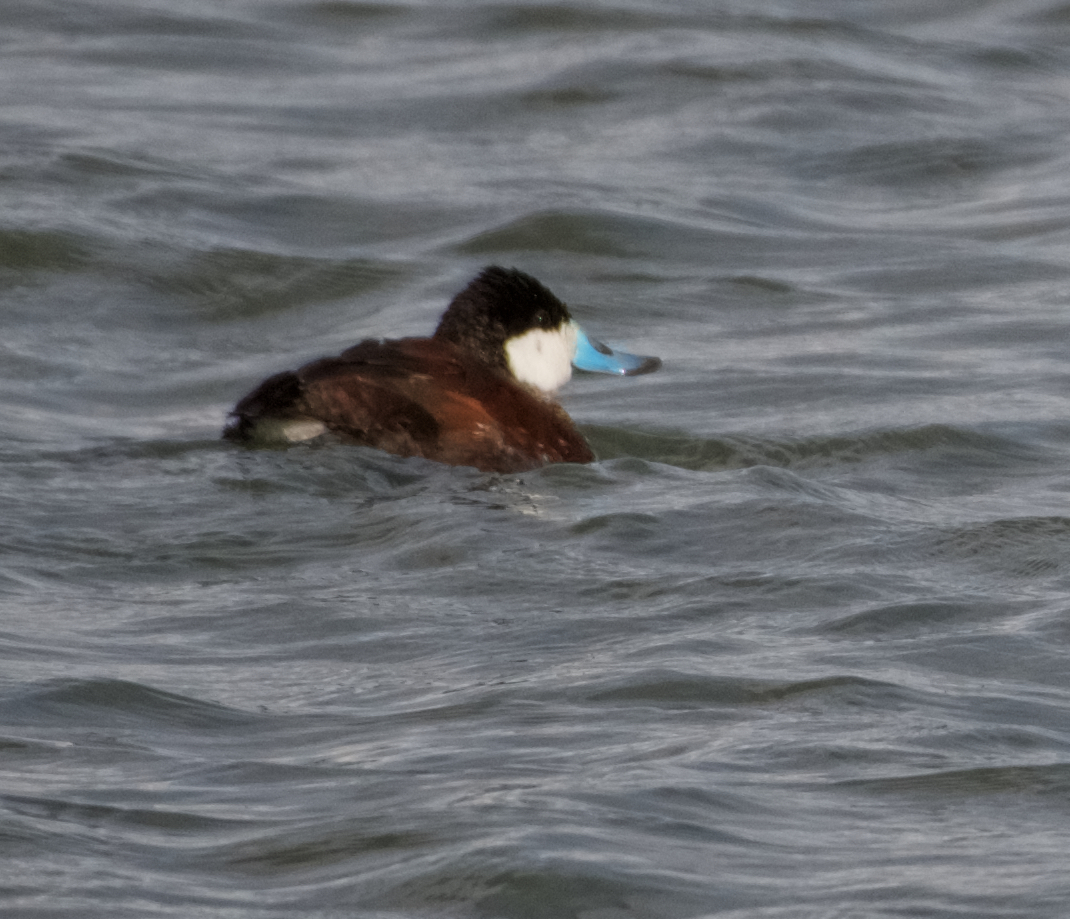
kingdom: Animalia
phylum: Chordata
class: Aves
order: Anseriformes
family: Anatidae
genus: Oxyura
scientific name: Oxyura jamaicensis
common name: Ruddy duck
